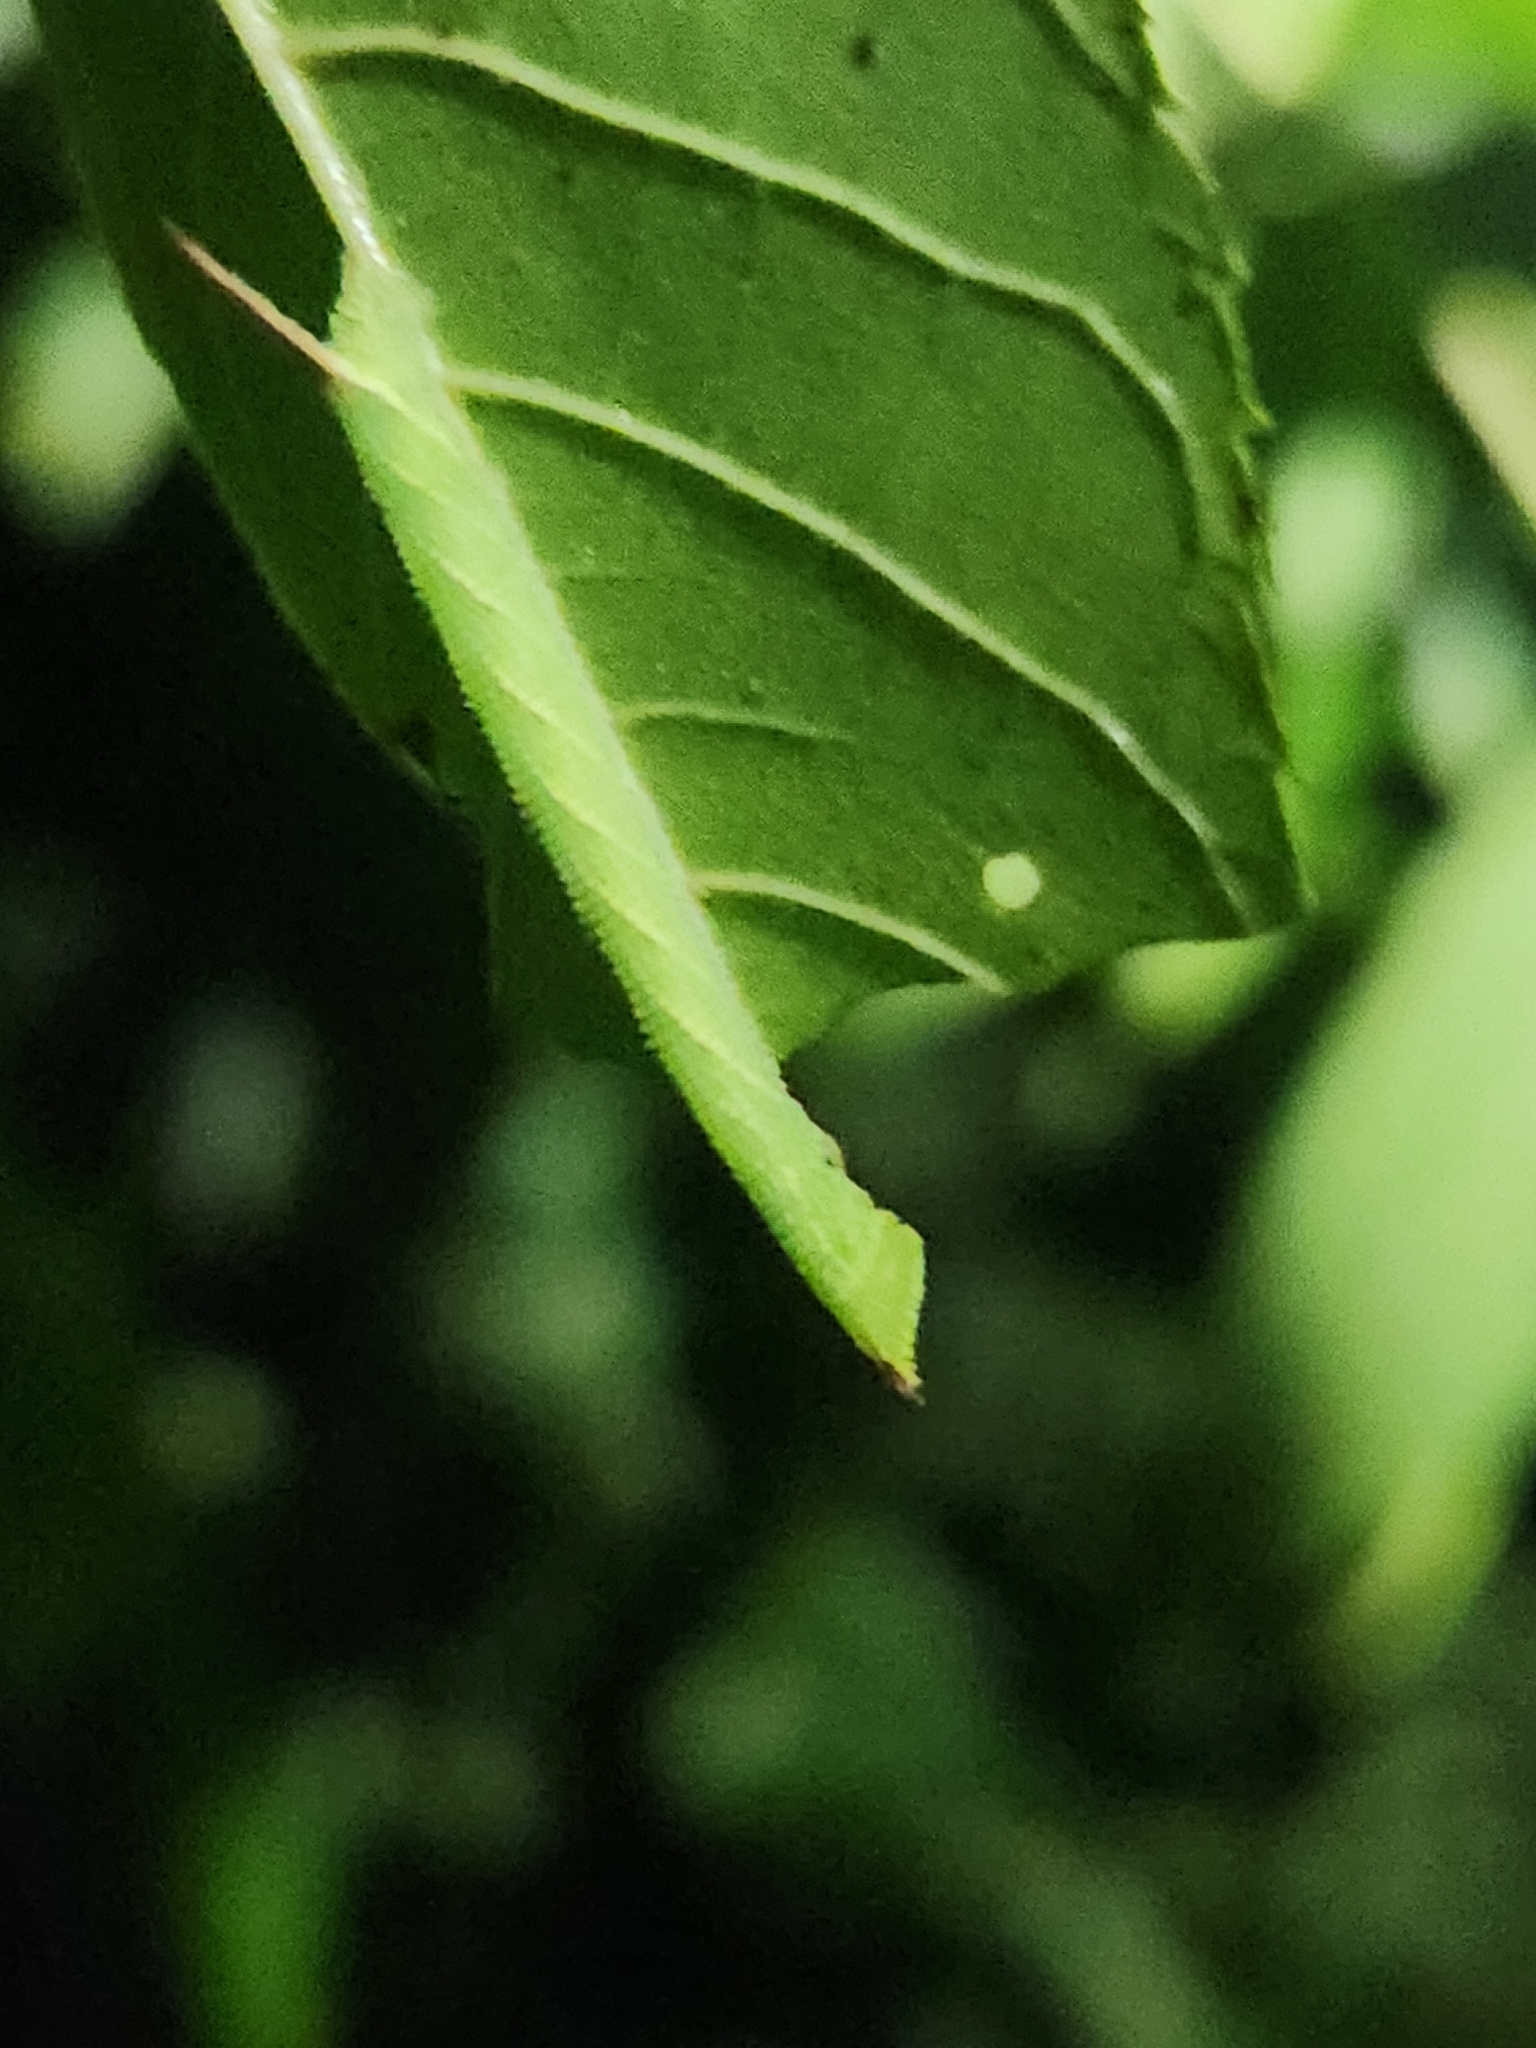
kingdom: Animalia
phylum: Arthropoda
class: Insecta
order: Lepidoptera
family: Sphingidae
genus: Amorpha
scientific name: Amorpha juglandis
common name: Walnut sphinx
